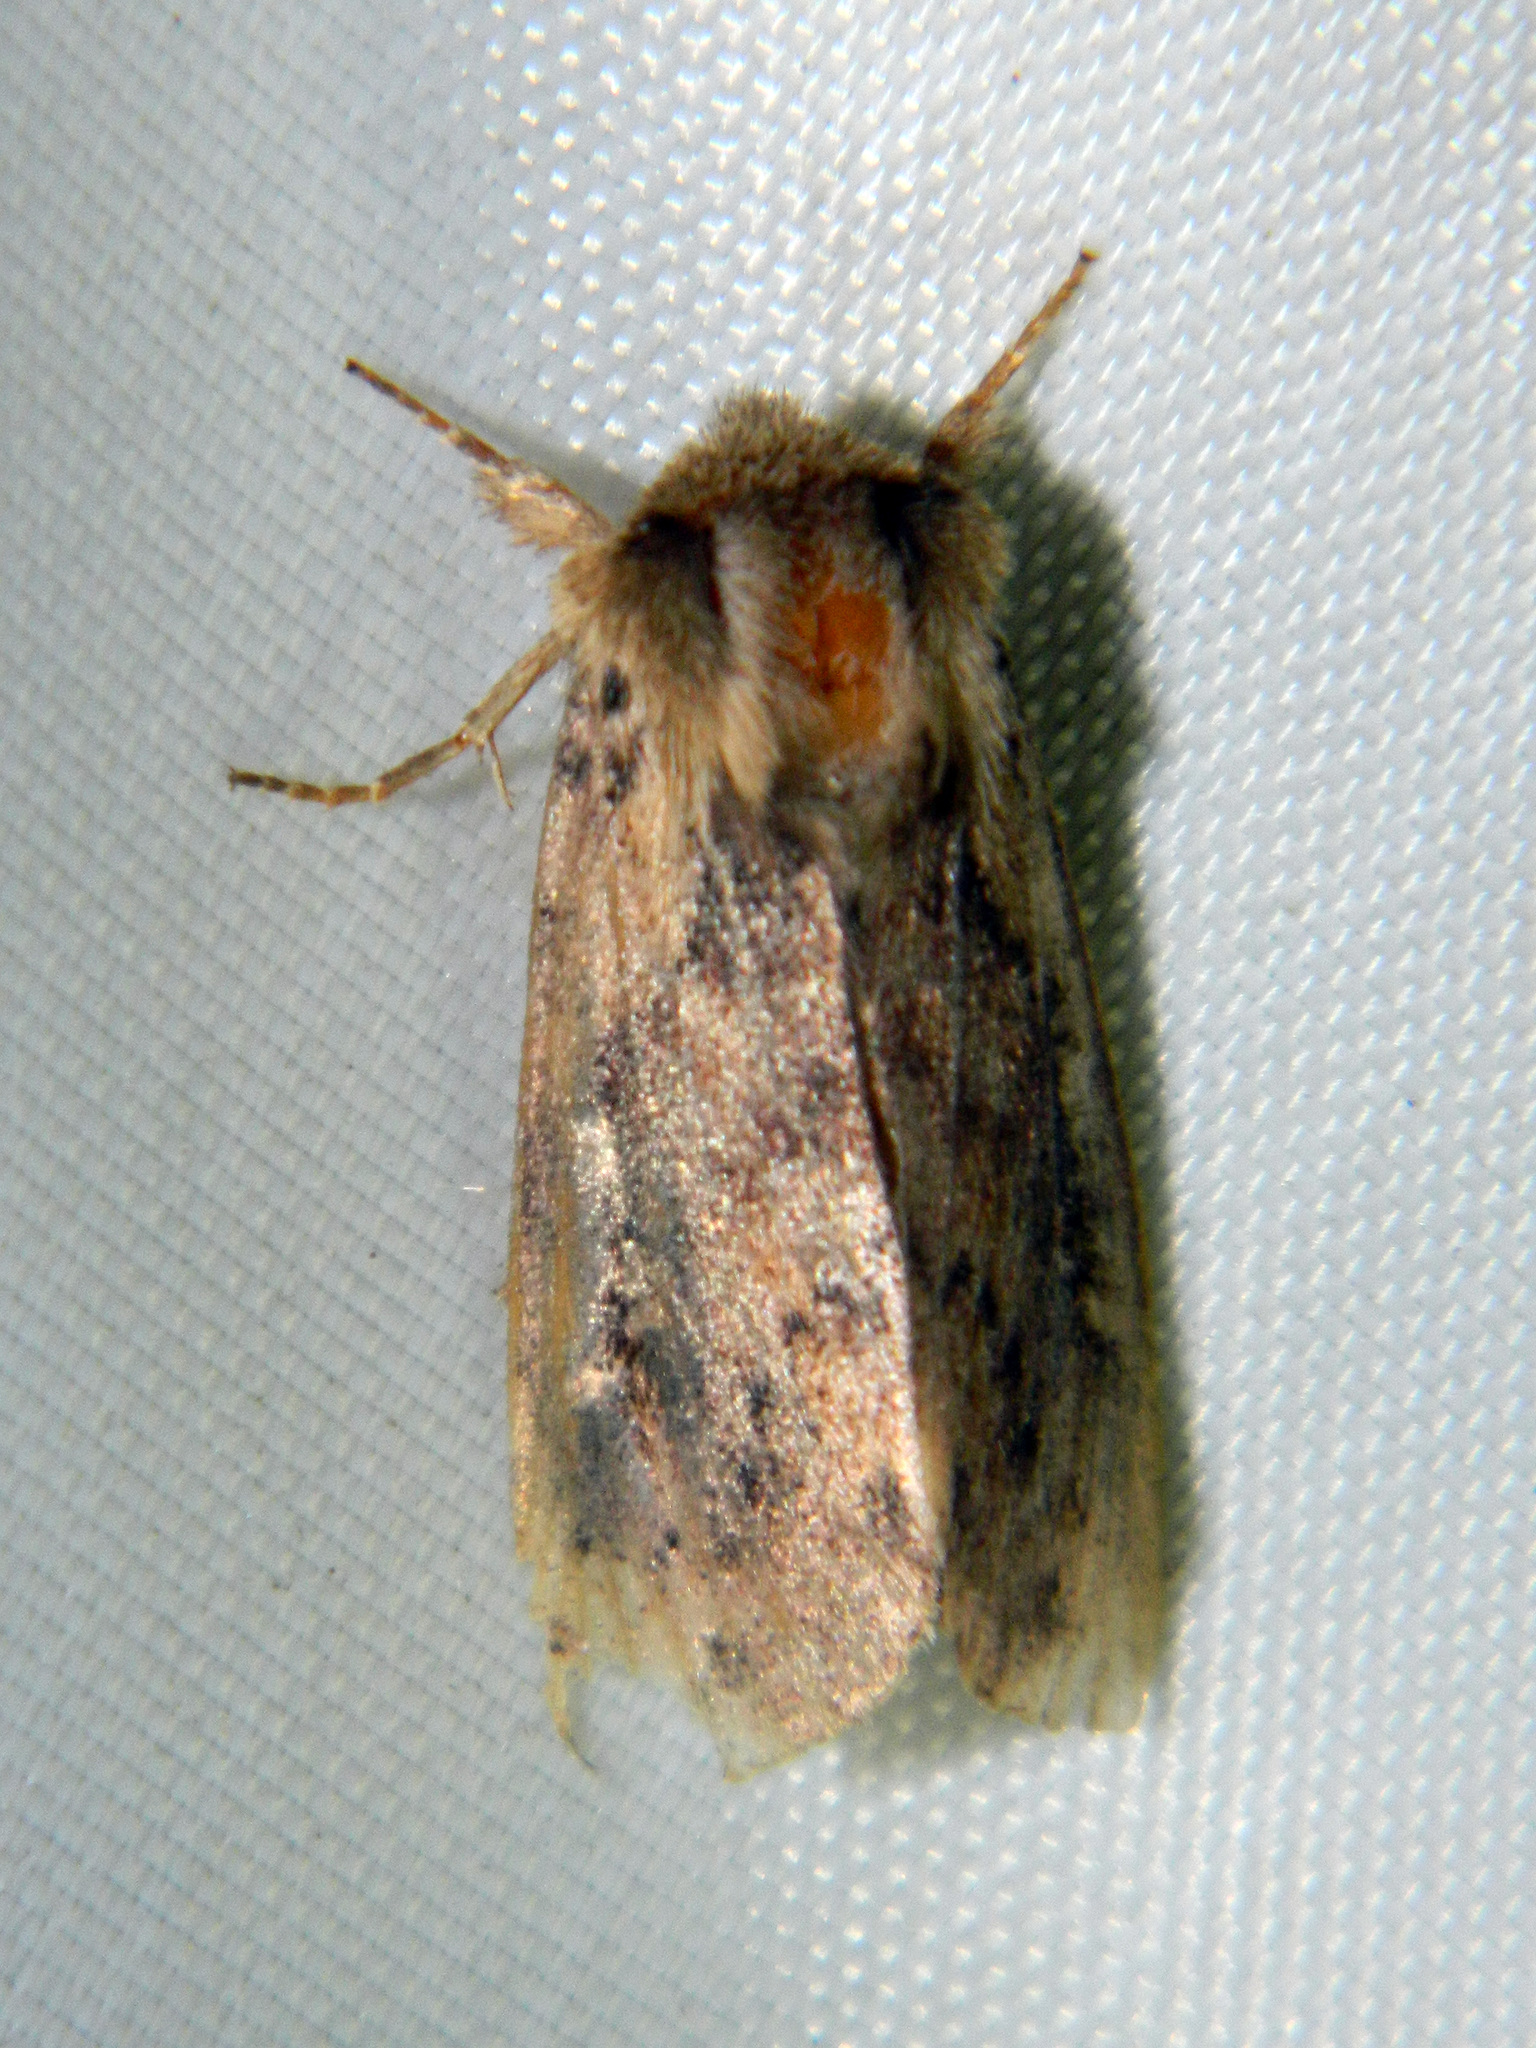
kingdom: Animalia
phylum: Arthropoda
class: Insecta
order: Lepidoptera
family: Noctuidae
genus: Bellura
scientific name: Bellura vulnifica
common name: Black-tailed diver moth
